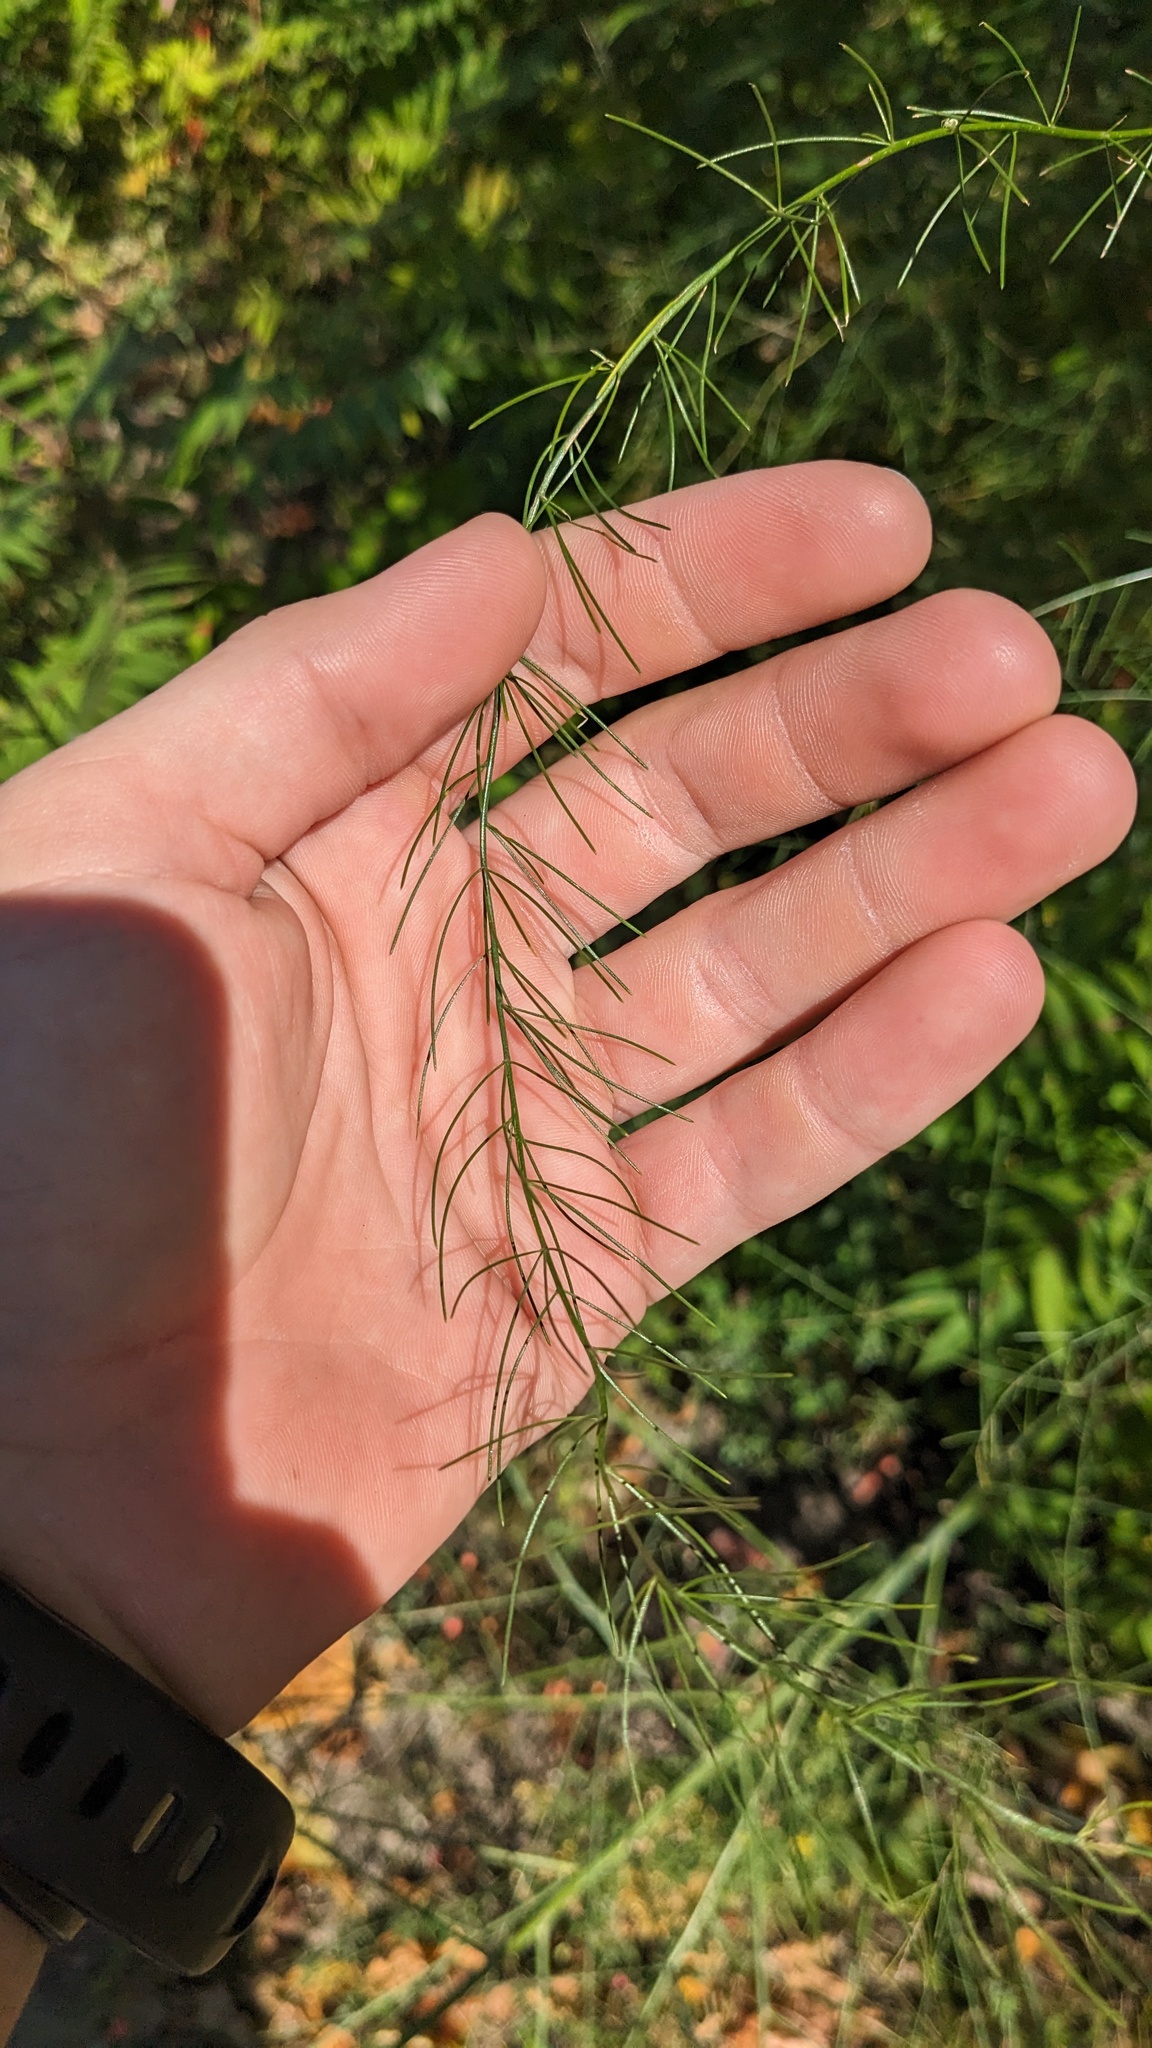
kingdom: Plantae
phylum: Tracheophyta
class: Liliopsida
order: Asparagales
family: Asparagaceae
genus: Asparagus
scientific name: Asparagus officinalis
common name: Garden asparagus
